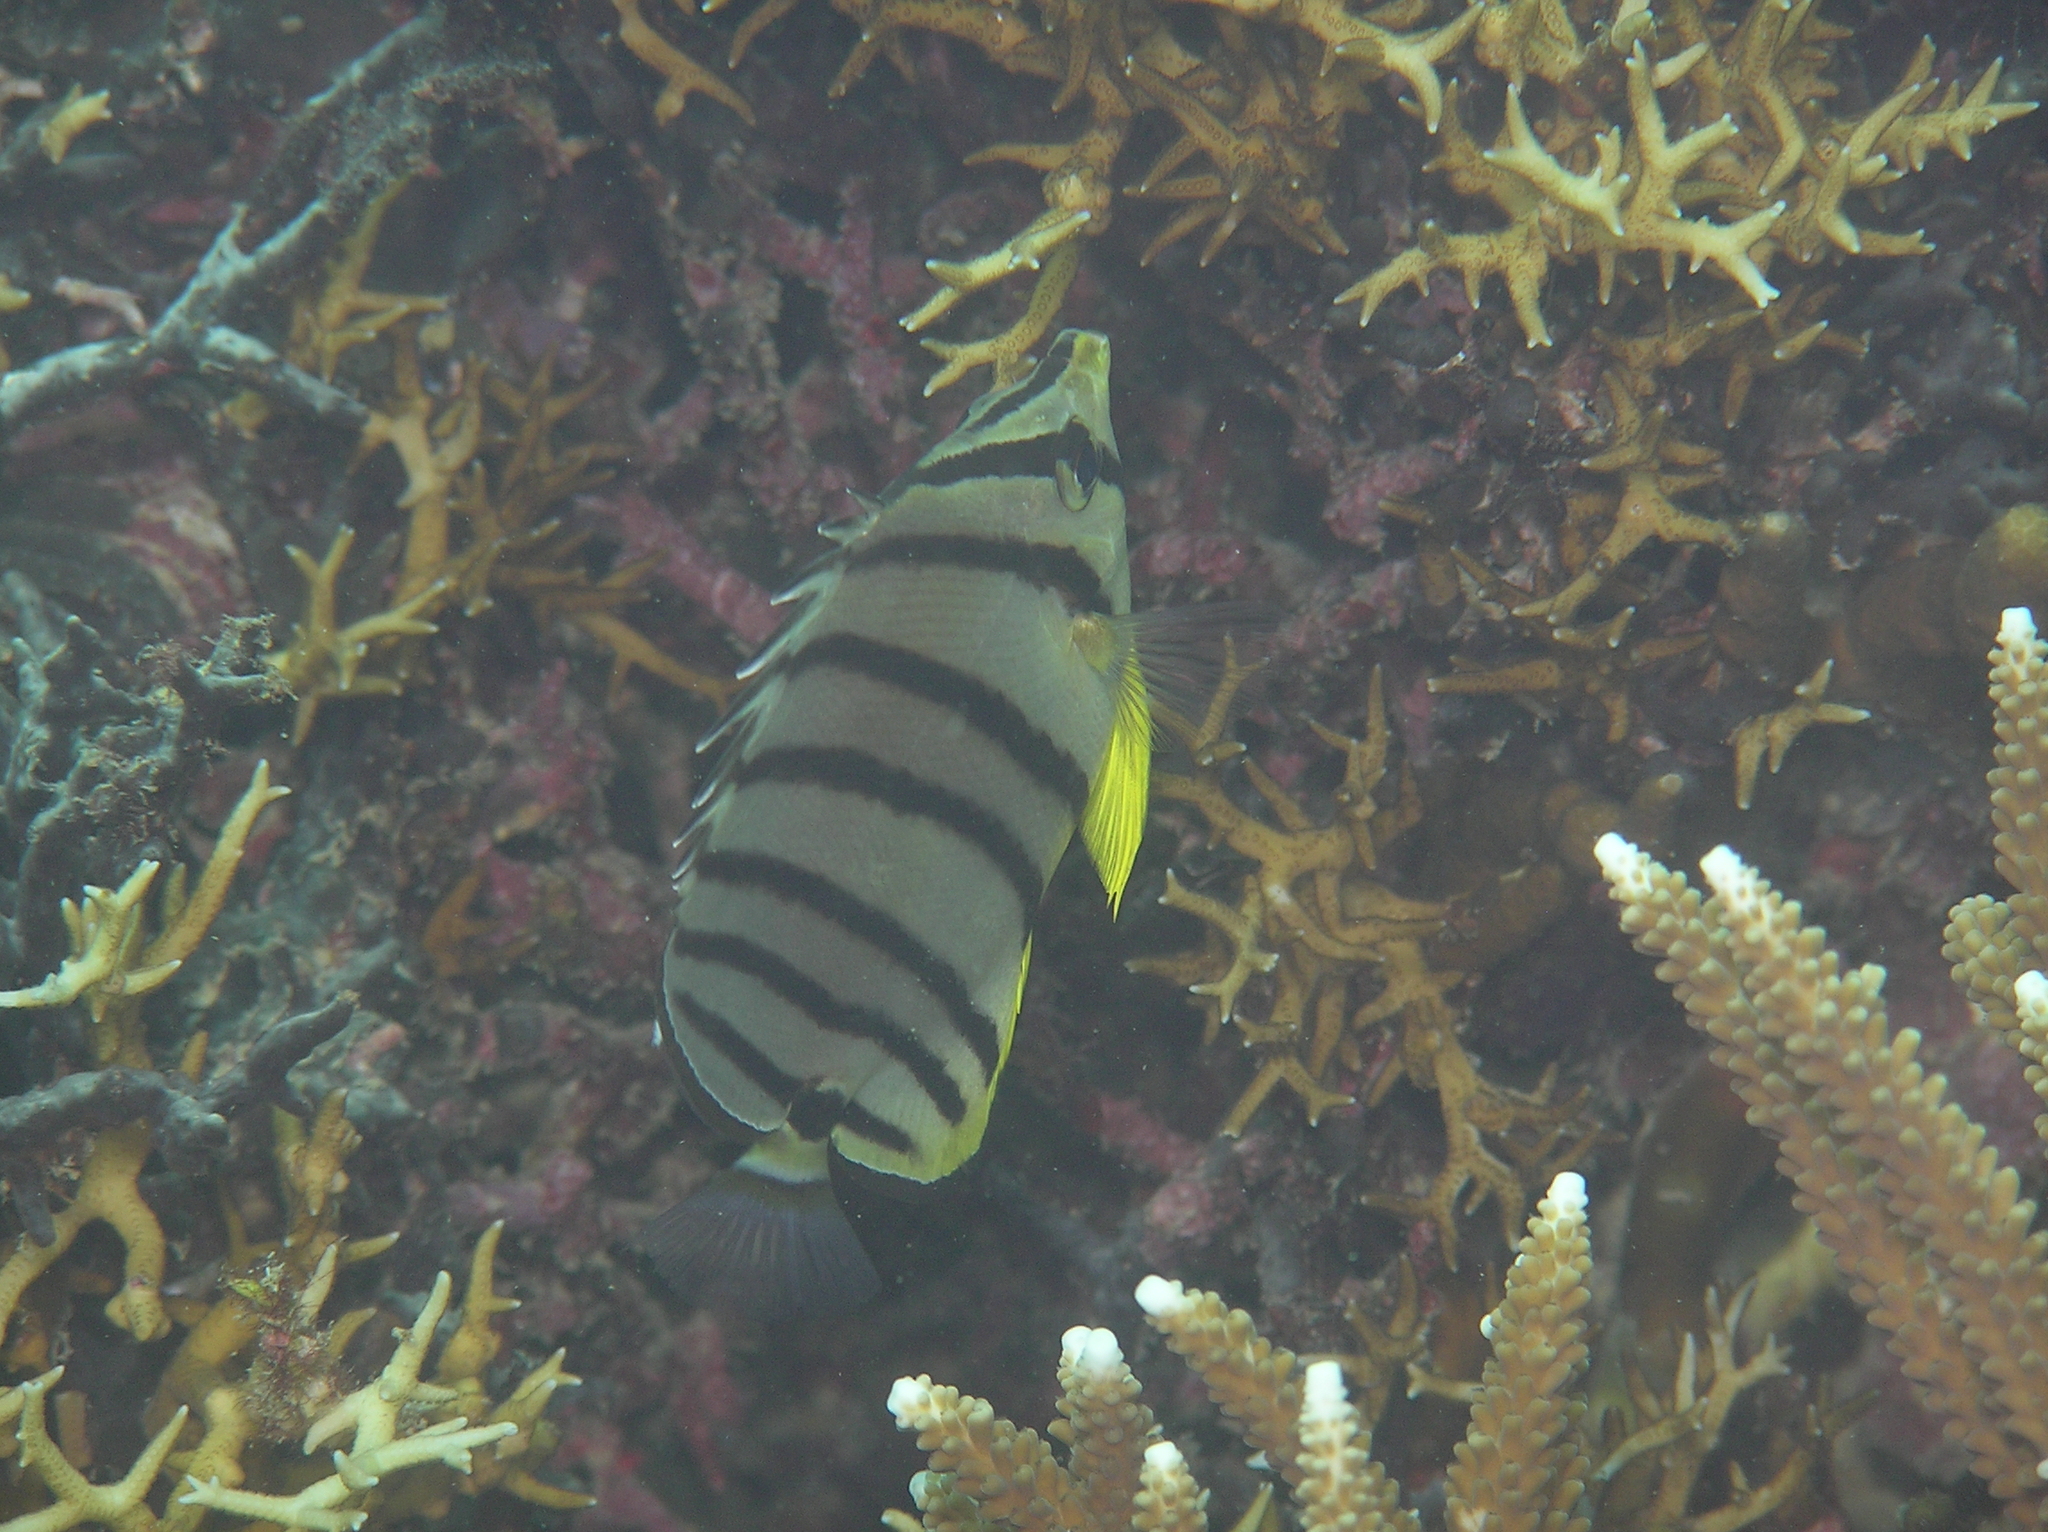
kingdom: Animalia
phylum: Chordata
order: Perciformes
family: Chaetodontidae
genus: Chaetodon
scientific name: Chaetodon octofasciatus
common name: Eightband butterflyfish
